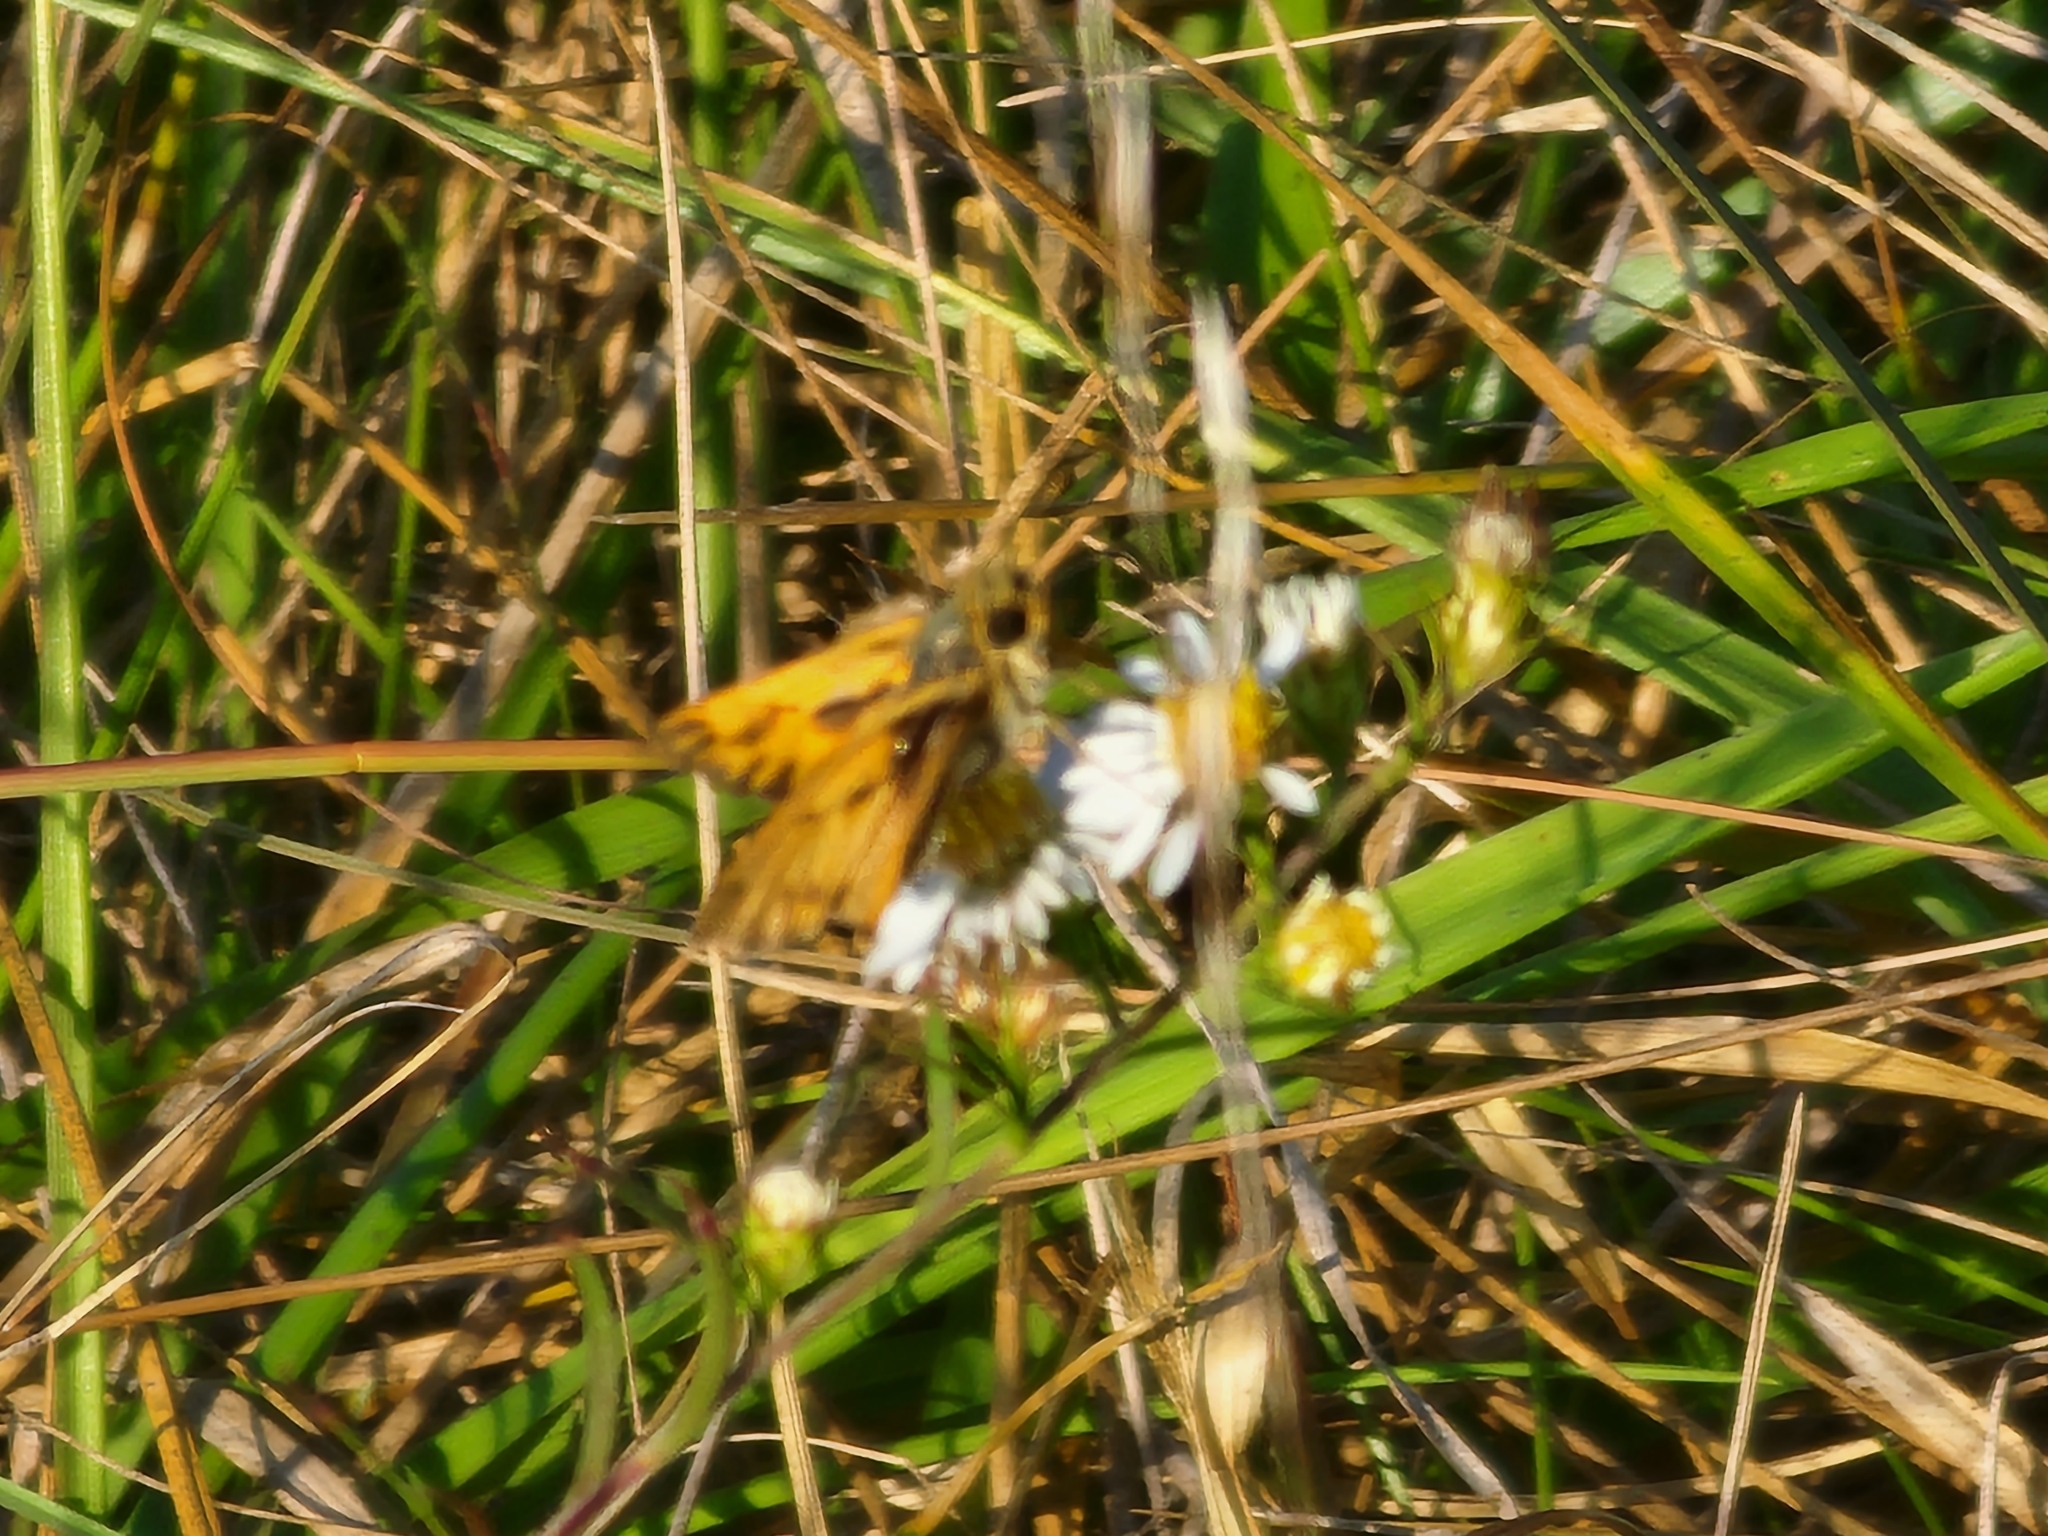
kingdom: Animalia
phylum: Arthropoda
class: Insecta
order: Lepidoptera
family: Hesperiidae
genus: Hylephila
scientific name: Hylephila phyleus
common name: Fiery skipper
